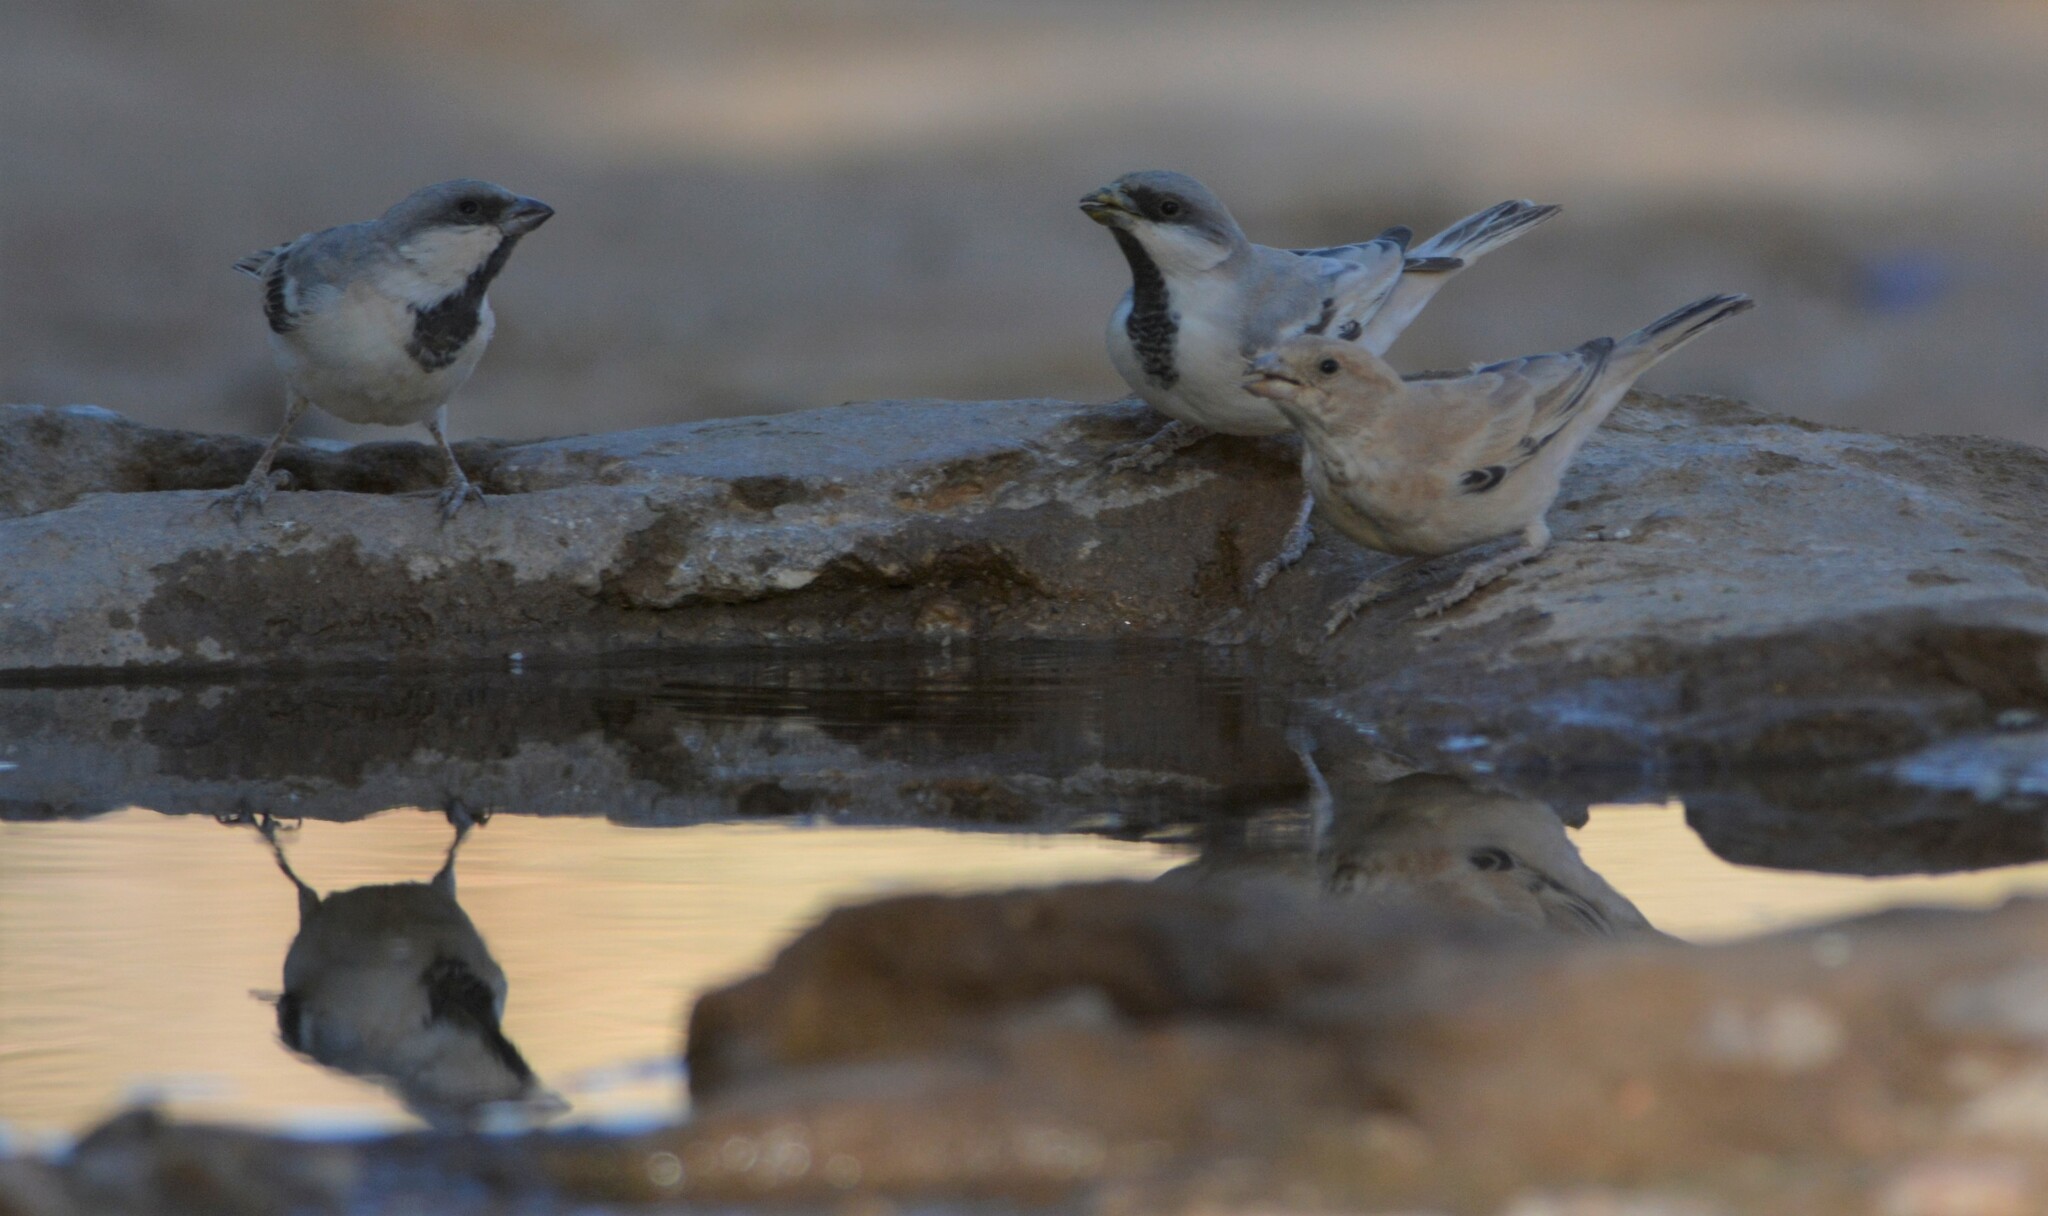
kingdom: Animalia
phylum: Chordata
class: Aves
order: Passeriformes
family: Passeridae
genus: Passer
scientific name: Passer simplex
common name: Desert sparrow
